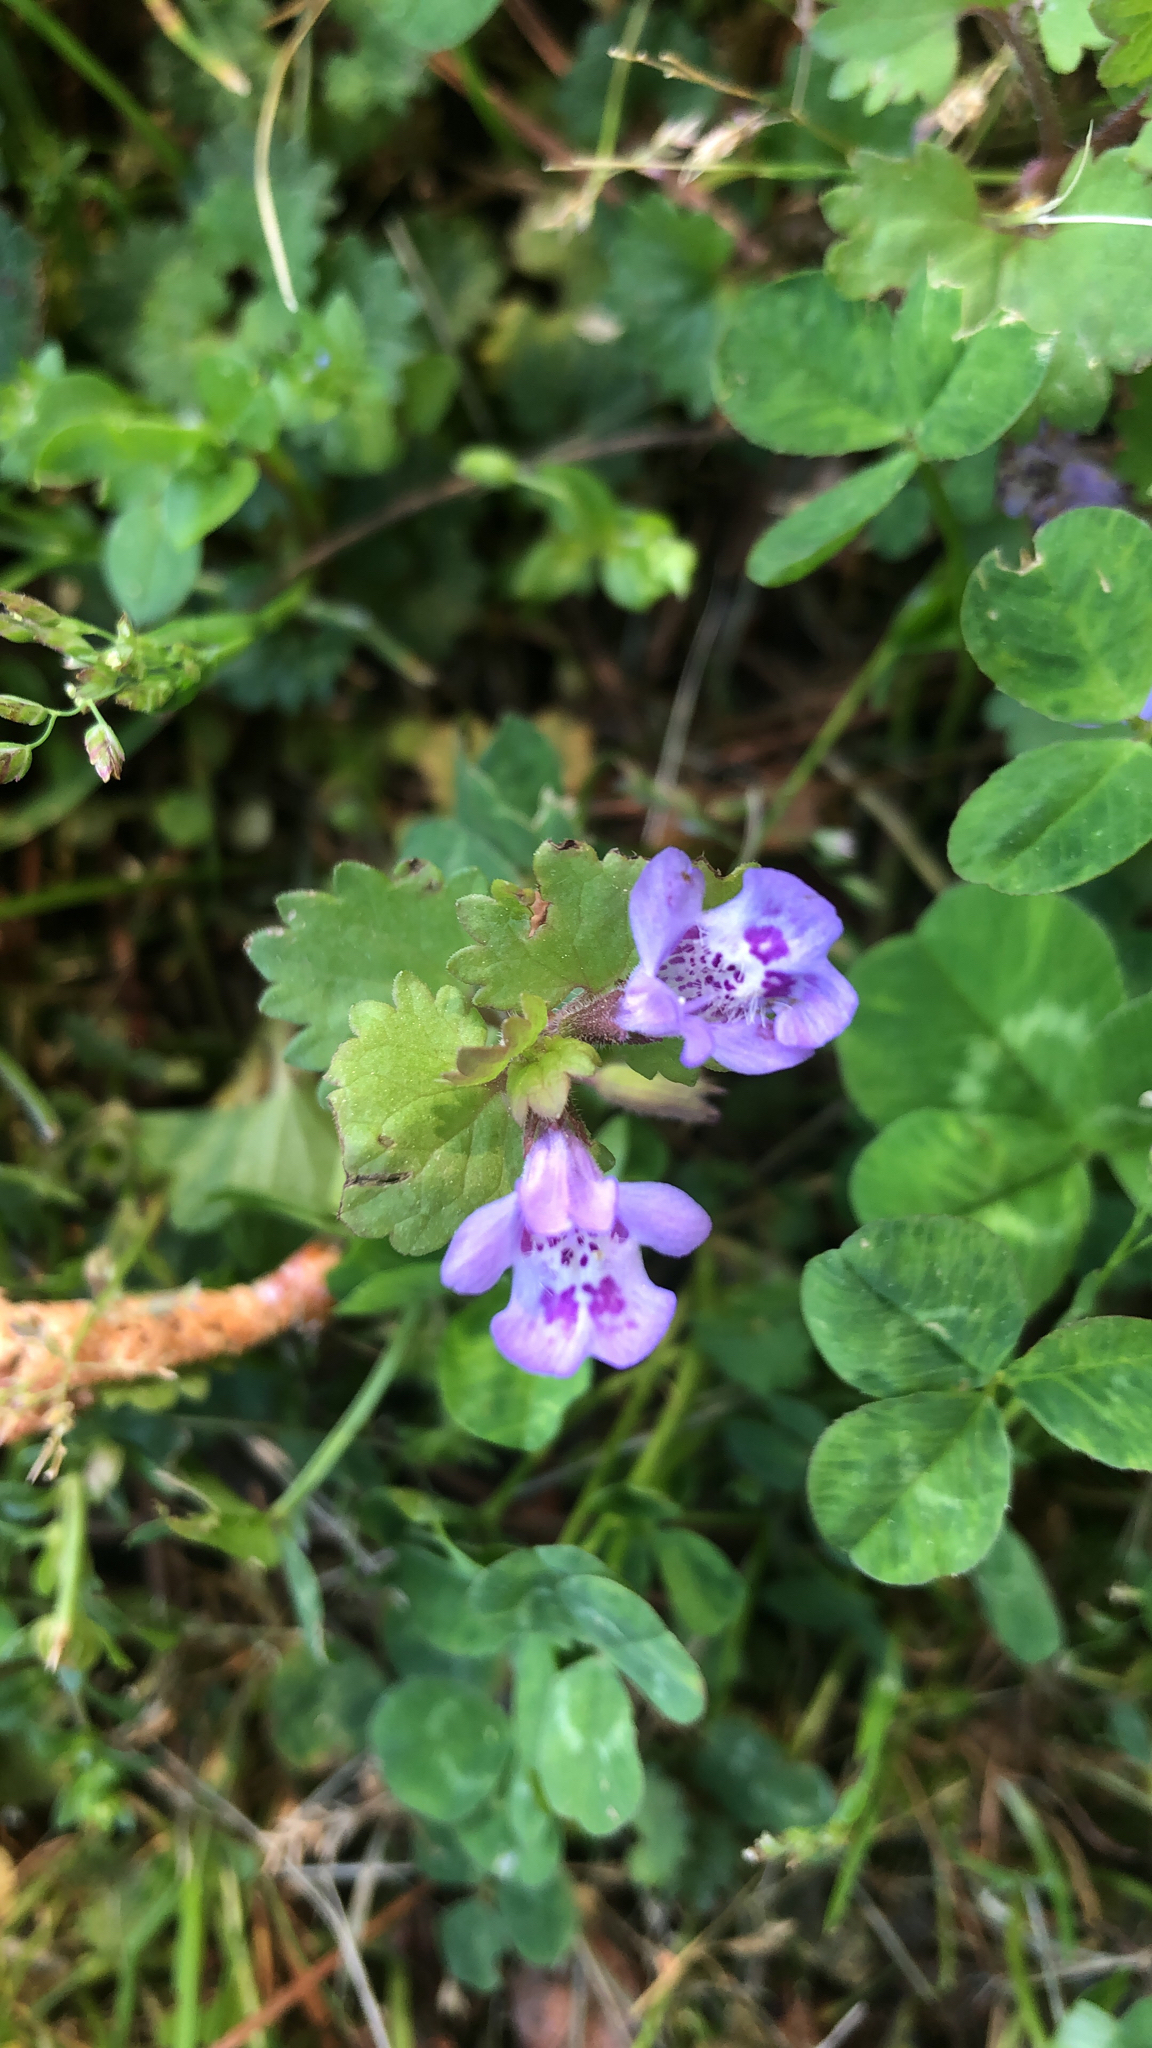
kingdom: Plantae
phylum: Tracheophyta
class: Magnoliopsida
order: Lamiales
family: Lamiaceae
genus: Glechoma
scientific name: Glechoma hederacea
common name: Ground ivy
